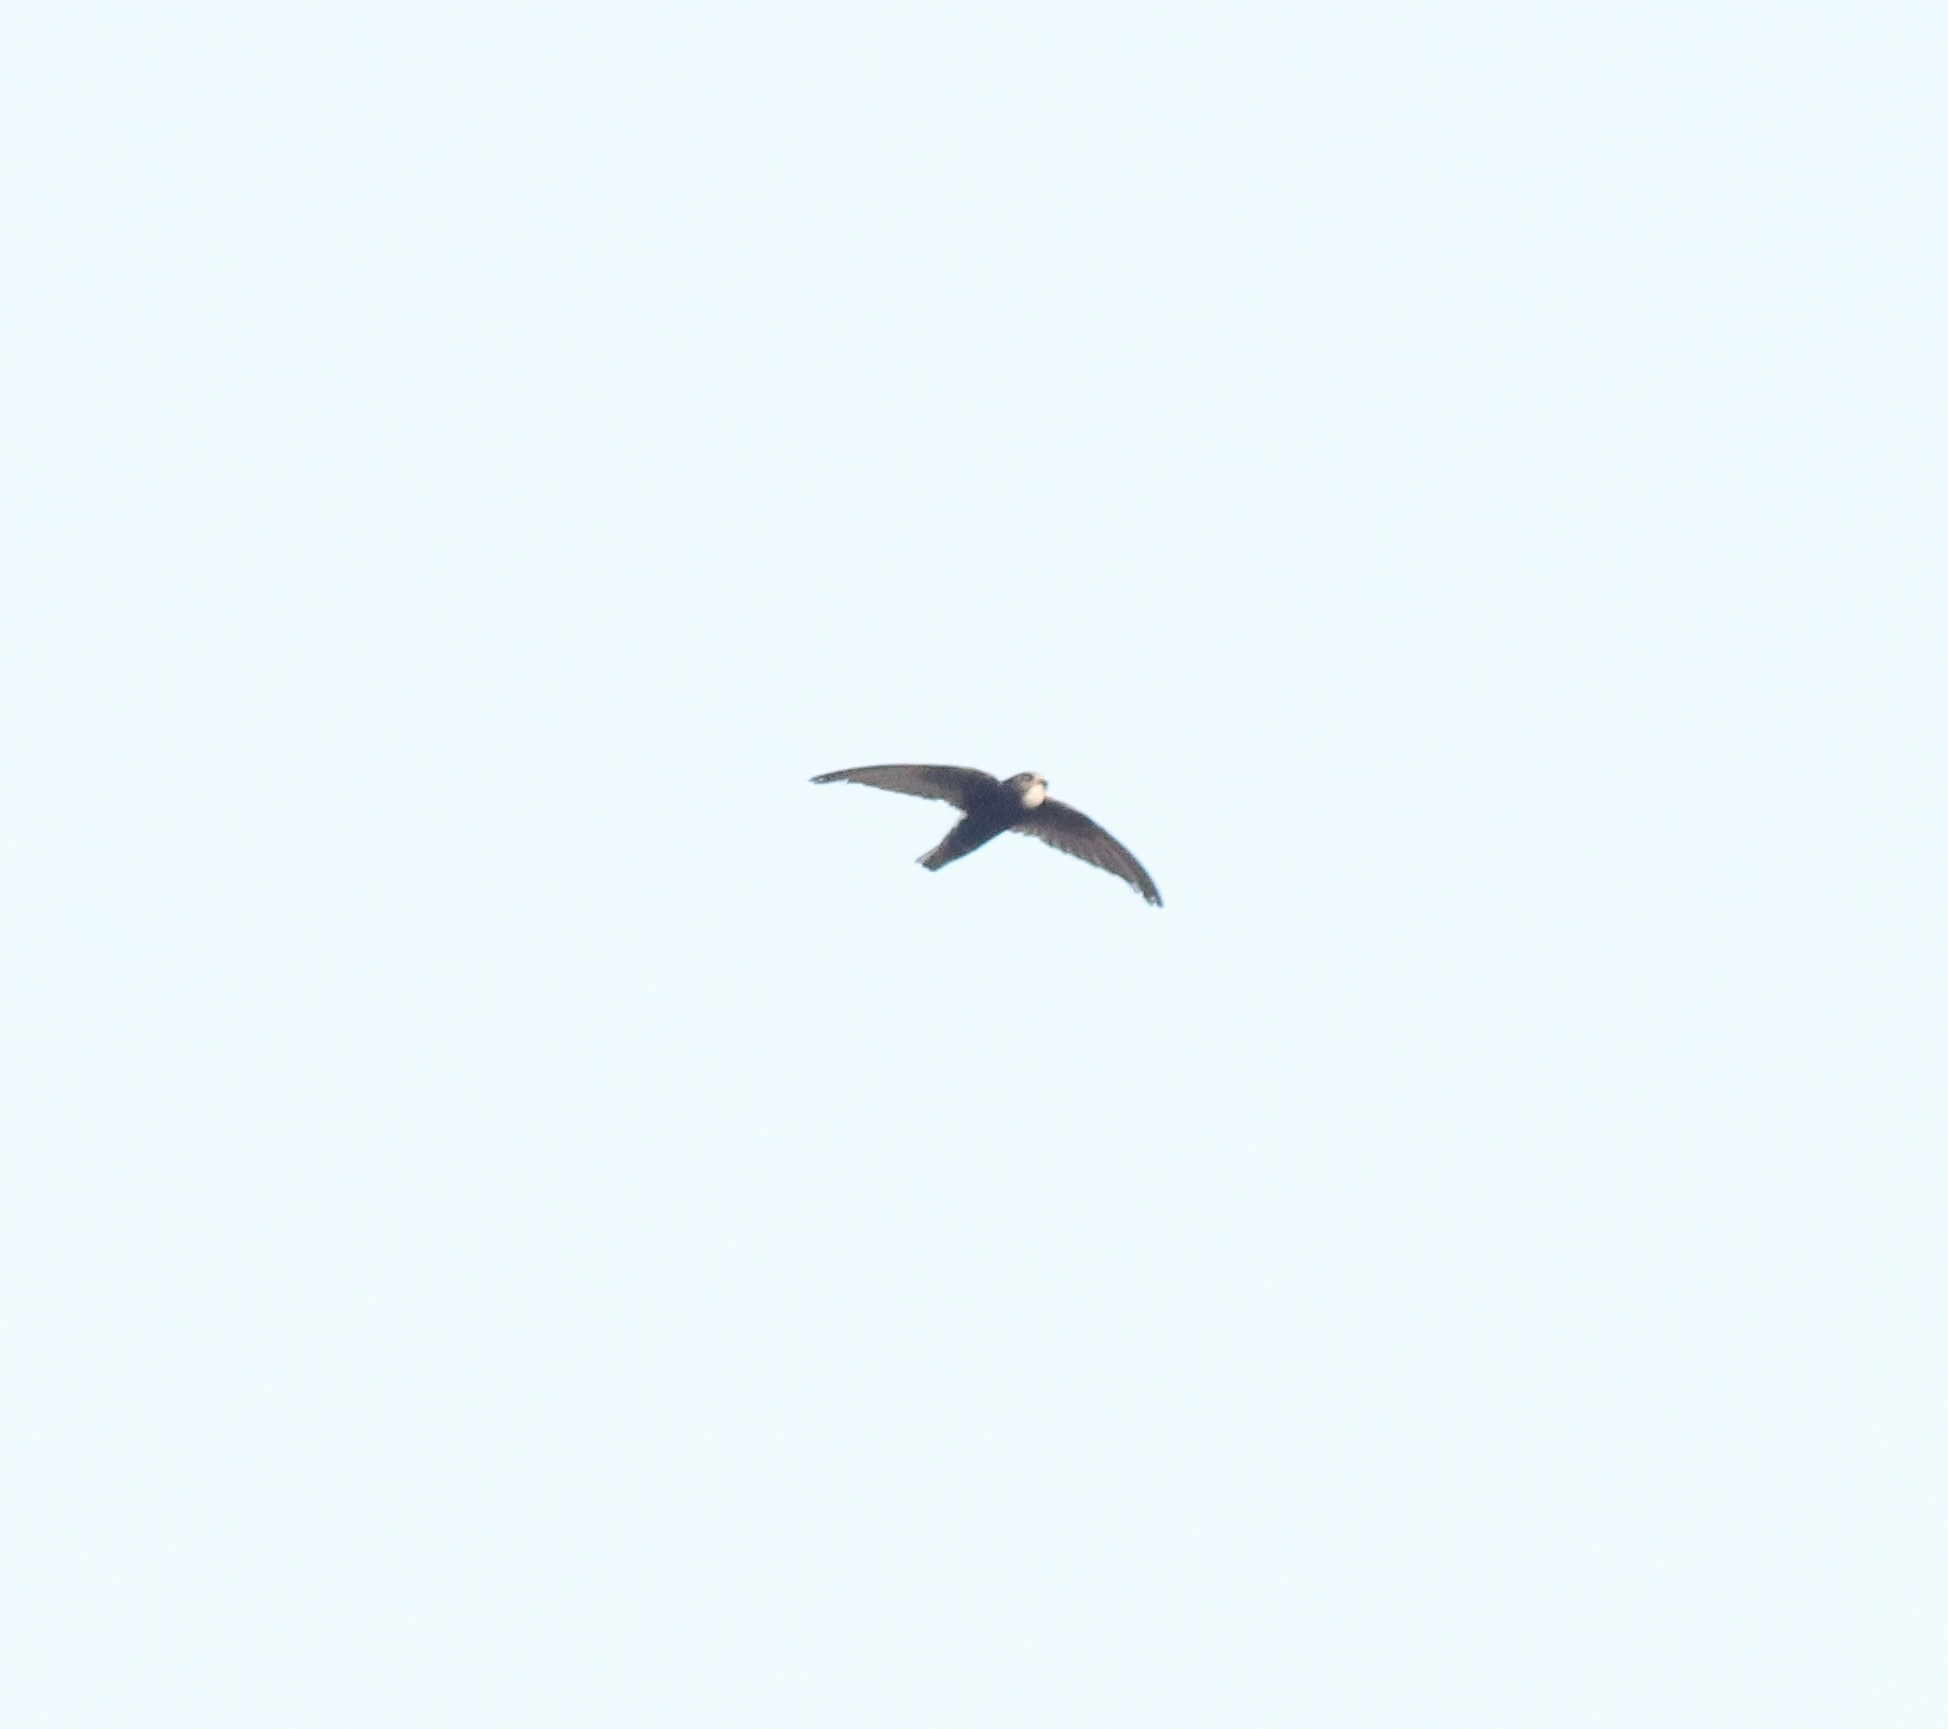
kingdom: Animalia
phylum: Chordata
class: Aves
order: Apodiformes
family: Apodidae
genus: Apus
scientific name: Apus affinis
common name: Little swift
